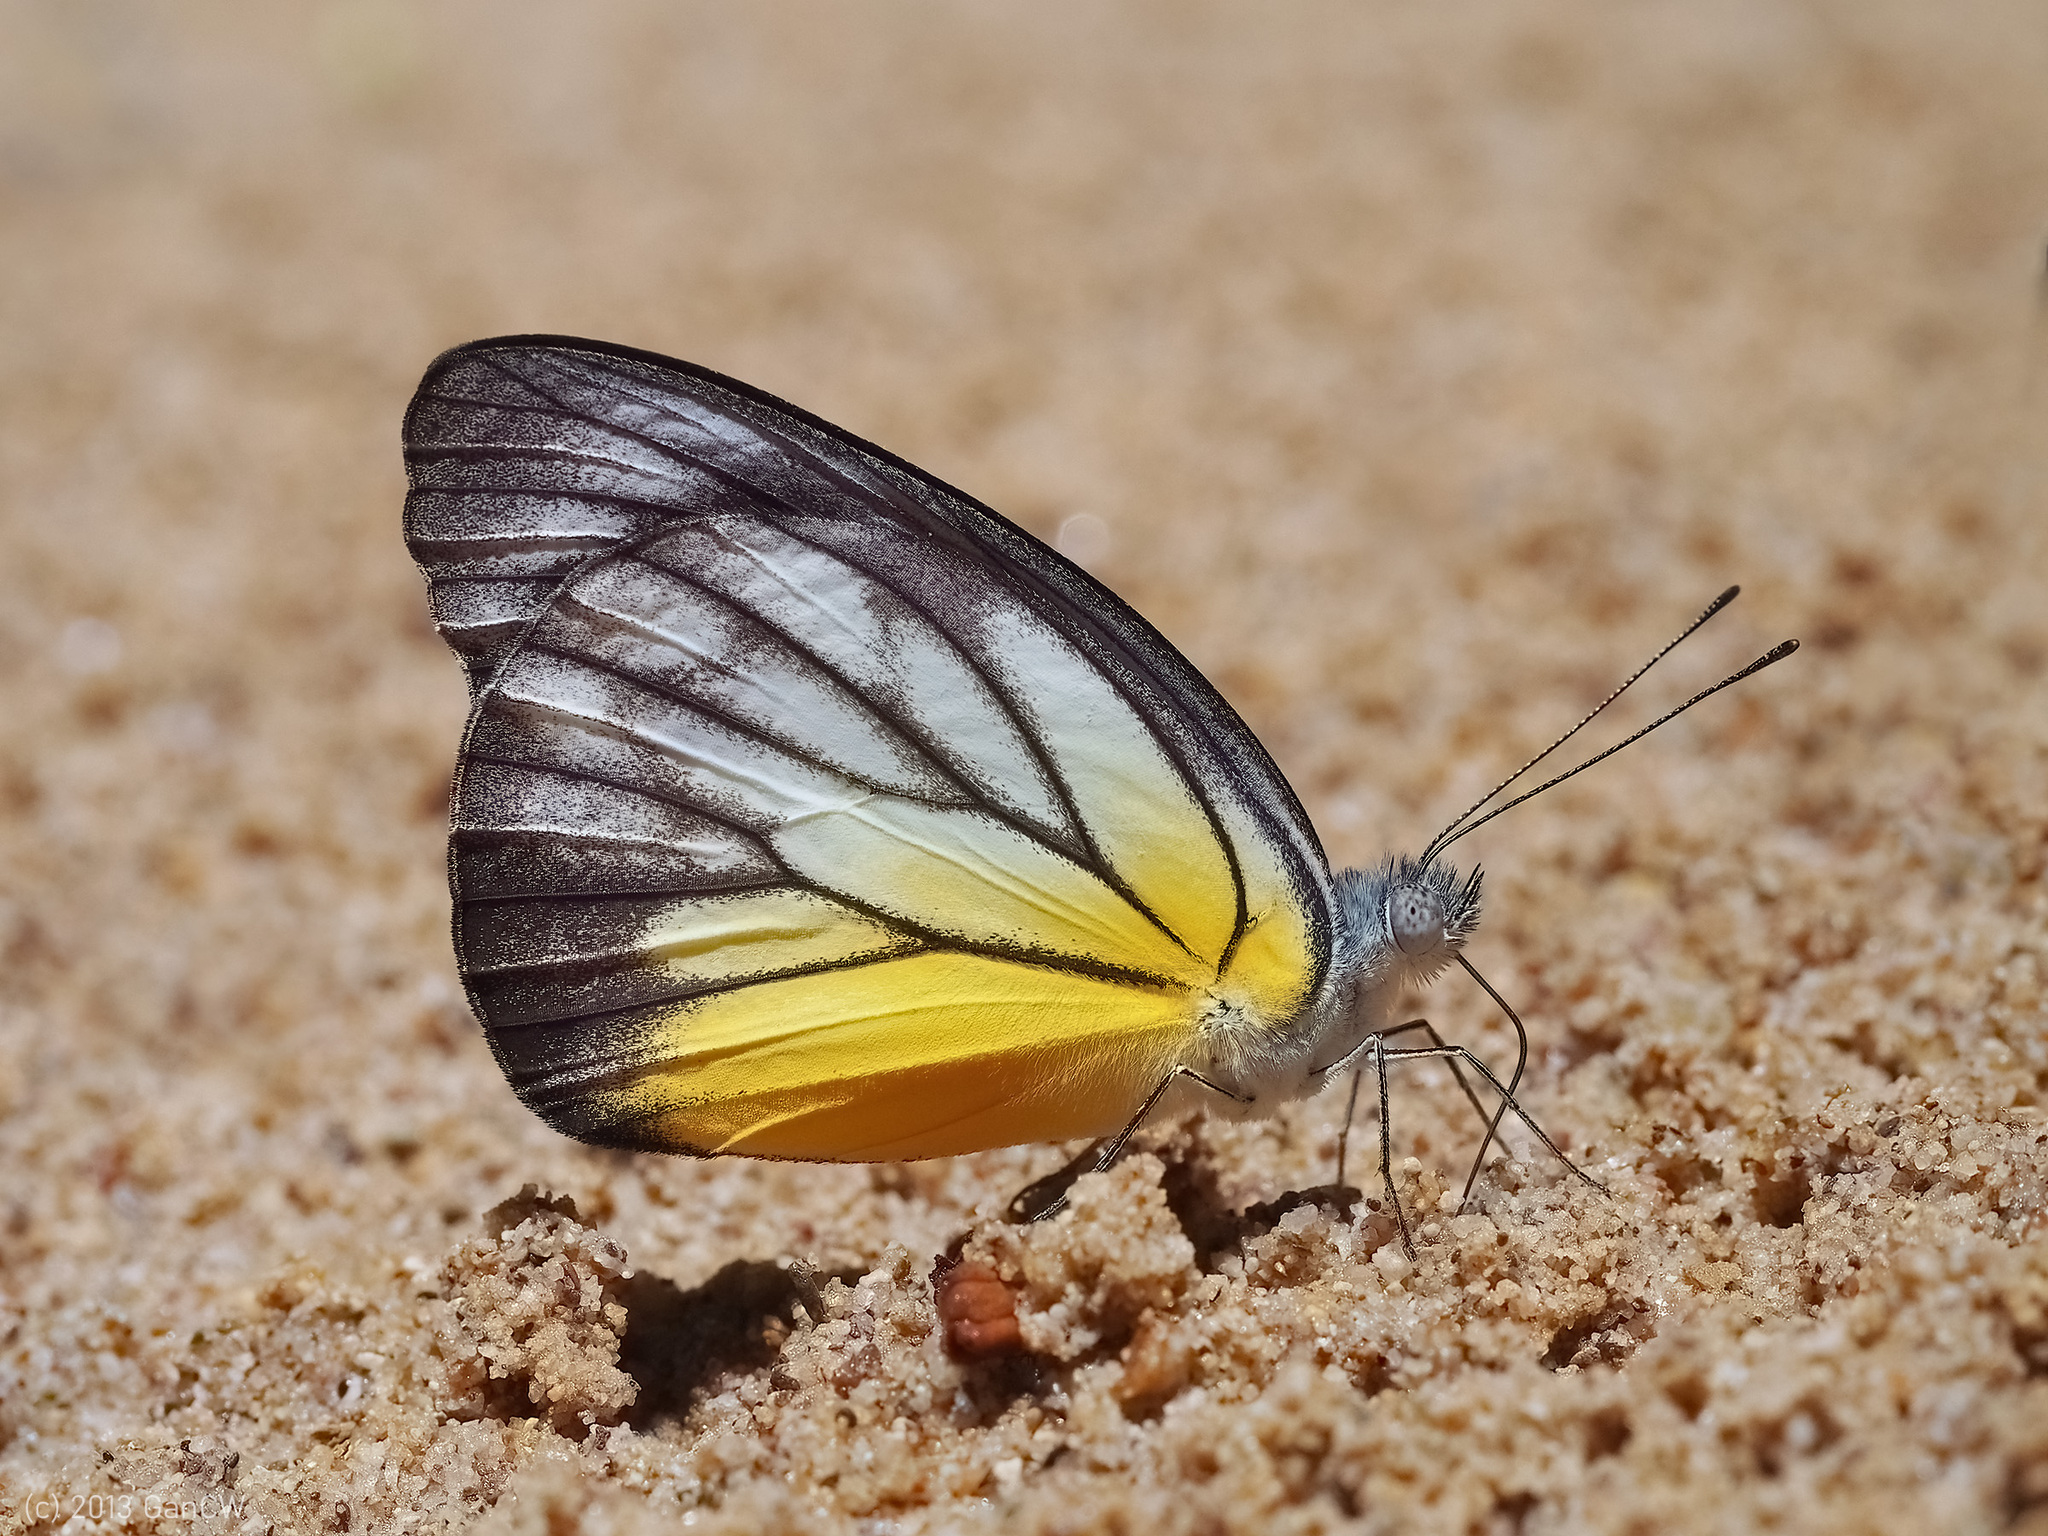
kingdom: Animalia
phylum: Arthropoda
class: Insecta
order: Lepidoptera
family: Pieridae
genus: Appias
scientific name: Appias cardena
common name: Yellow puffin
